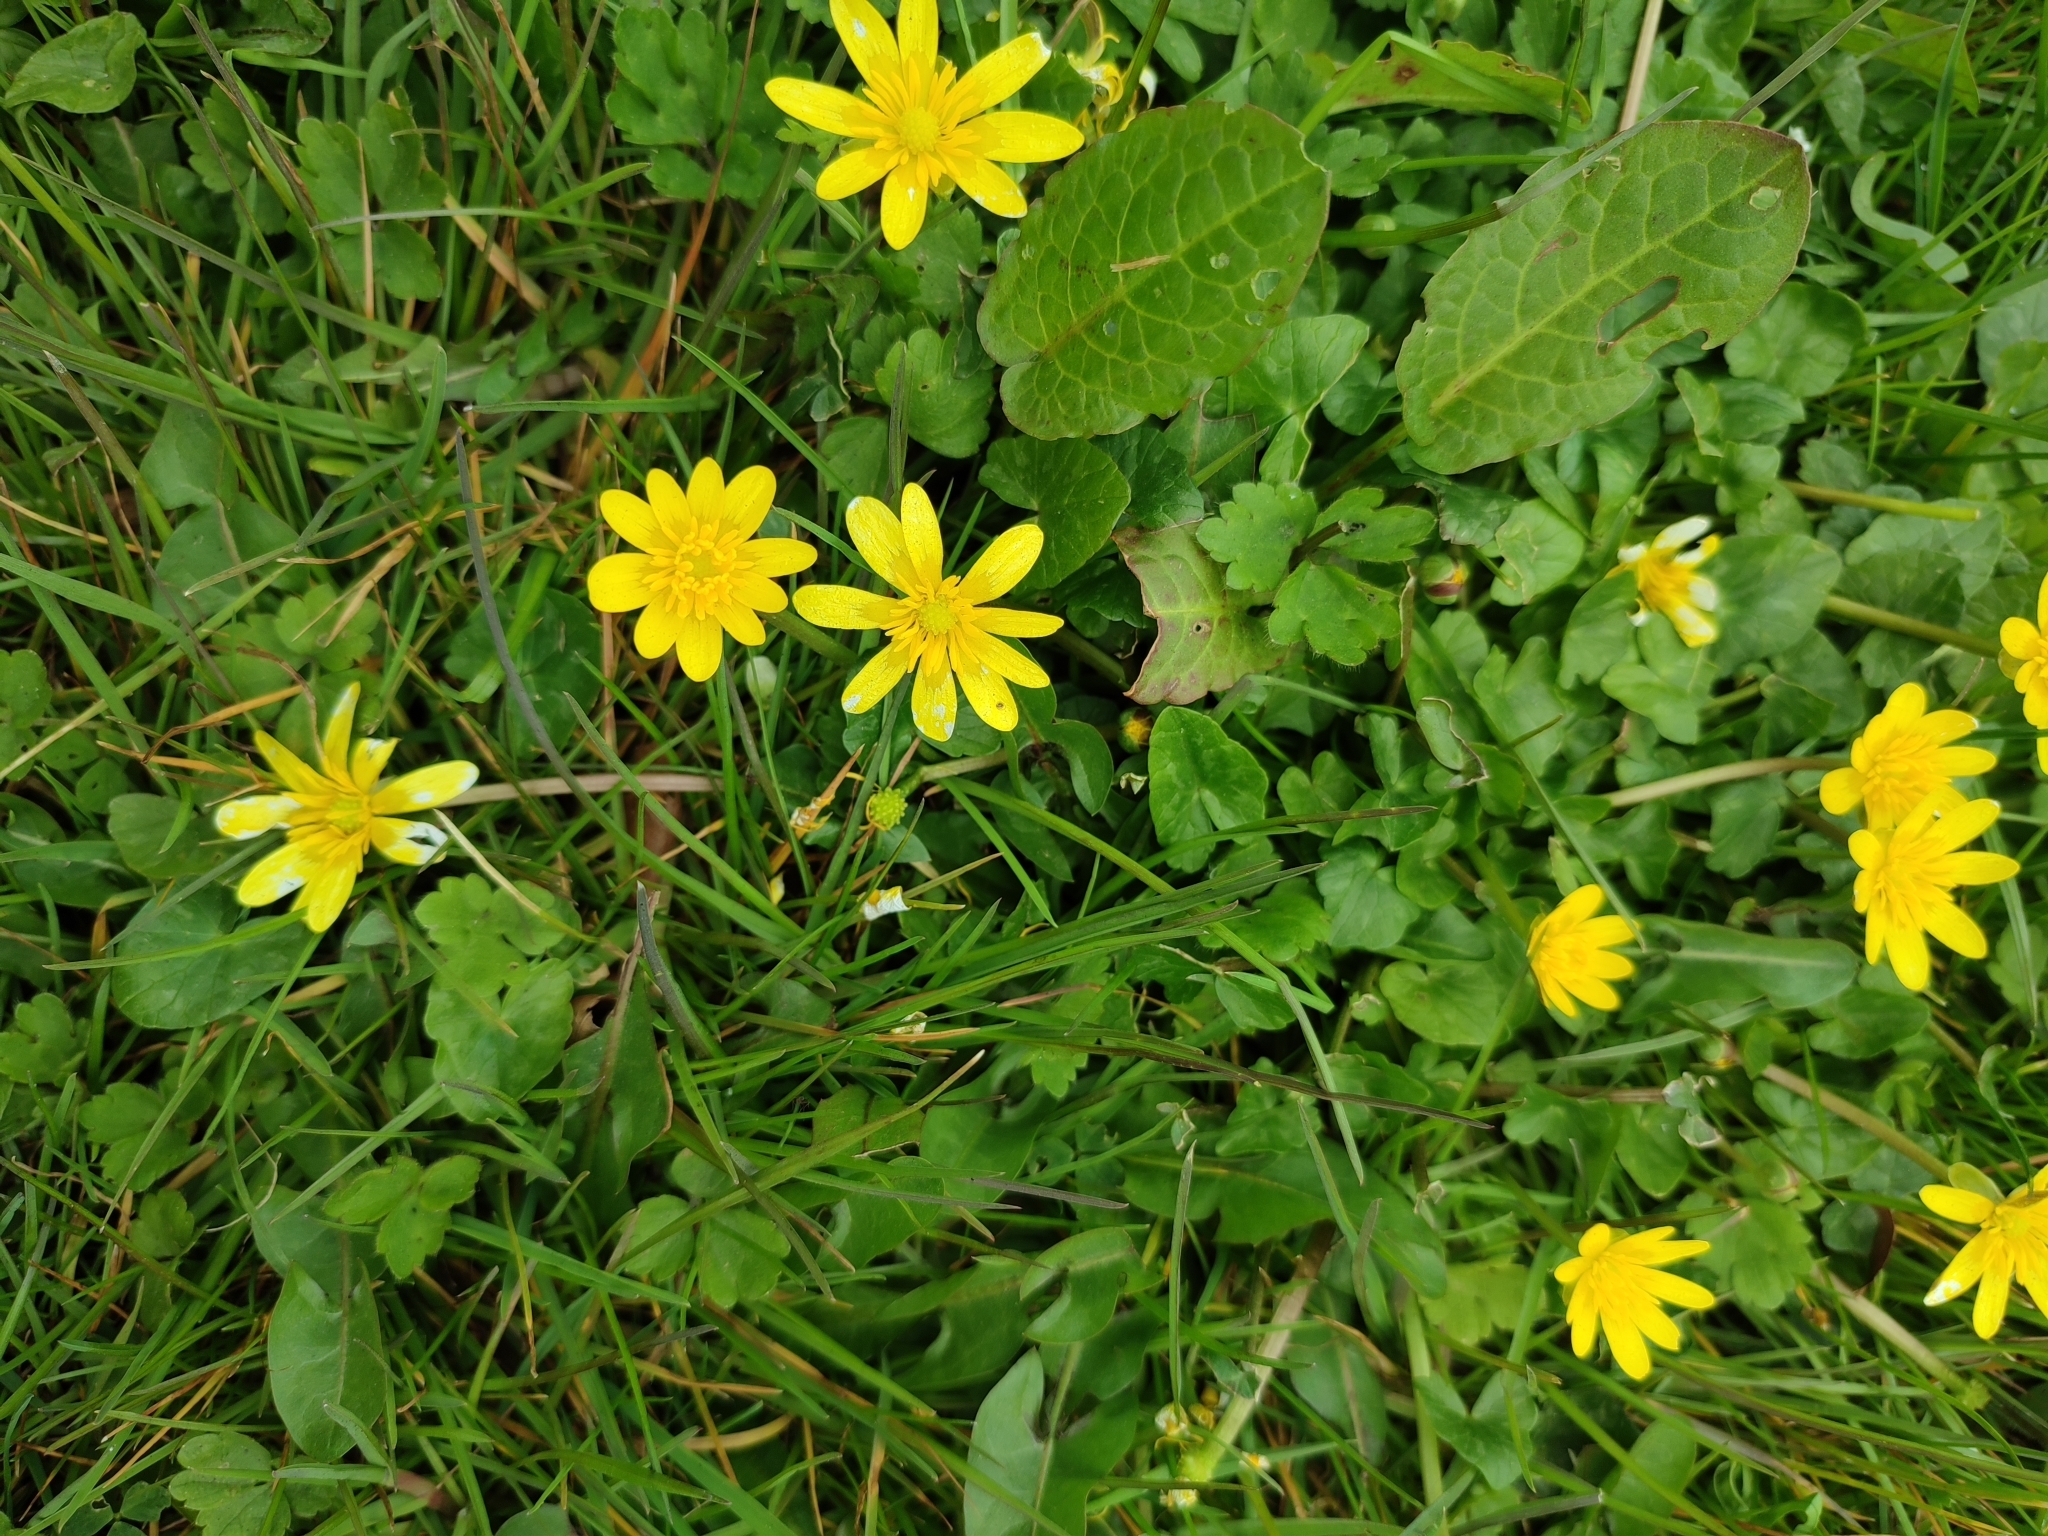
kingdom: Plantae
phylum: Tracheophyta
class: Magnoliopsida
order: Ranunculales
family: Ranunculaceae
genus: Ficaria
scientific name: Ficaria verna
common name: Lesser celandine
